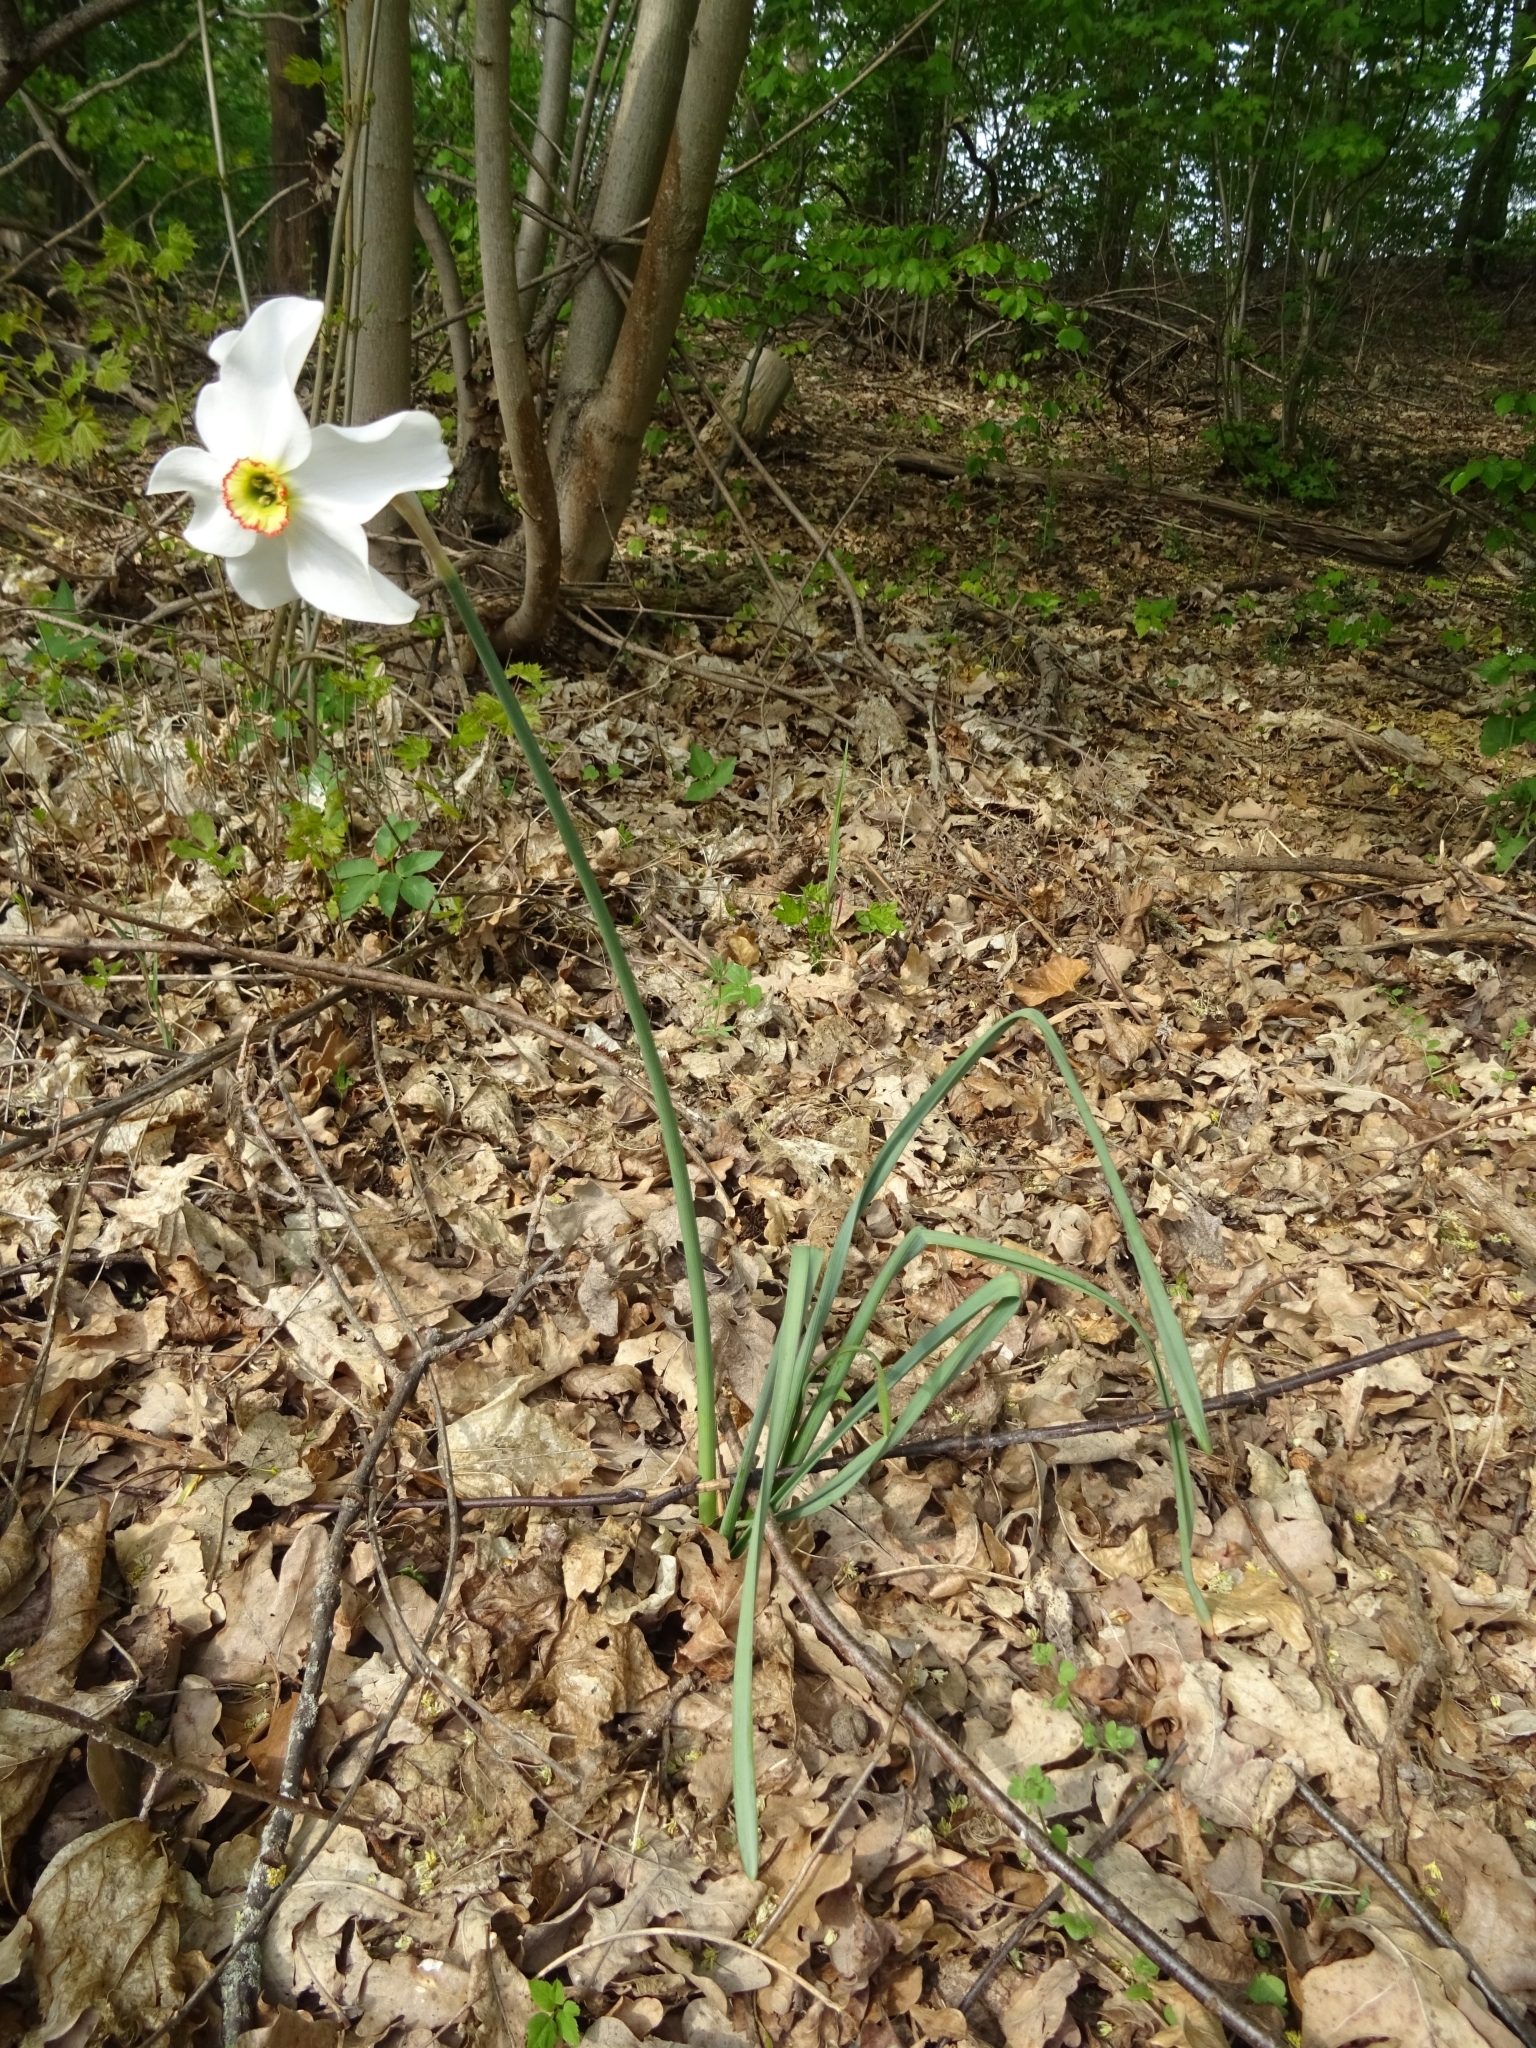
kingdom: Plantae
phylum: Tracheophyta
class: Liliopsida
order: Asparagales
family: Amaryllidaceae
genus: Narcissus
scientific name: Narcissus poeticus
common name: Pheasant's-eye daffodil
